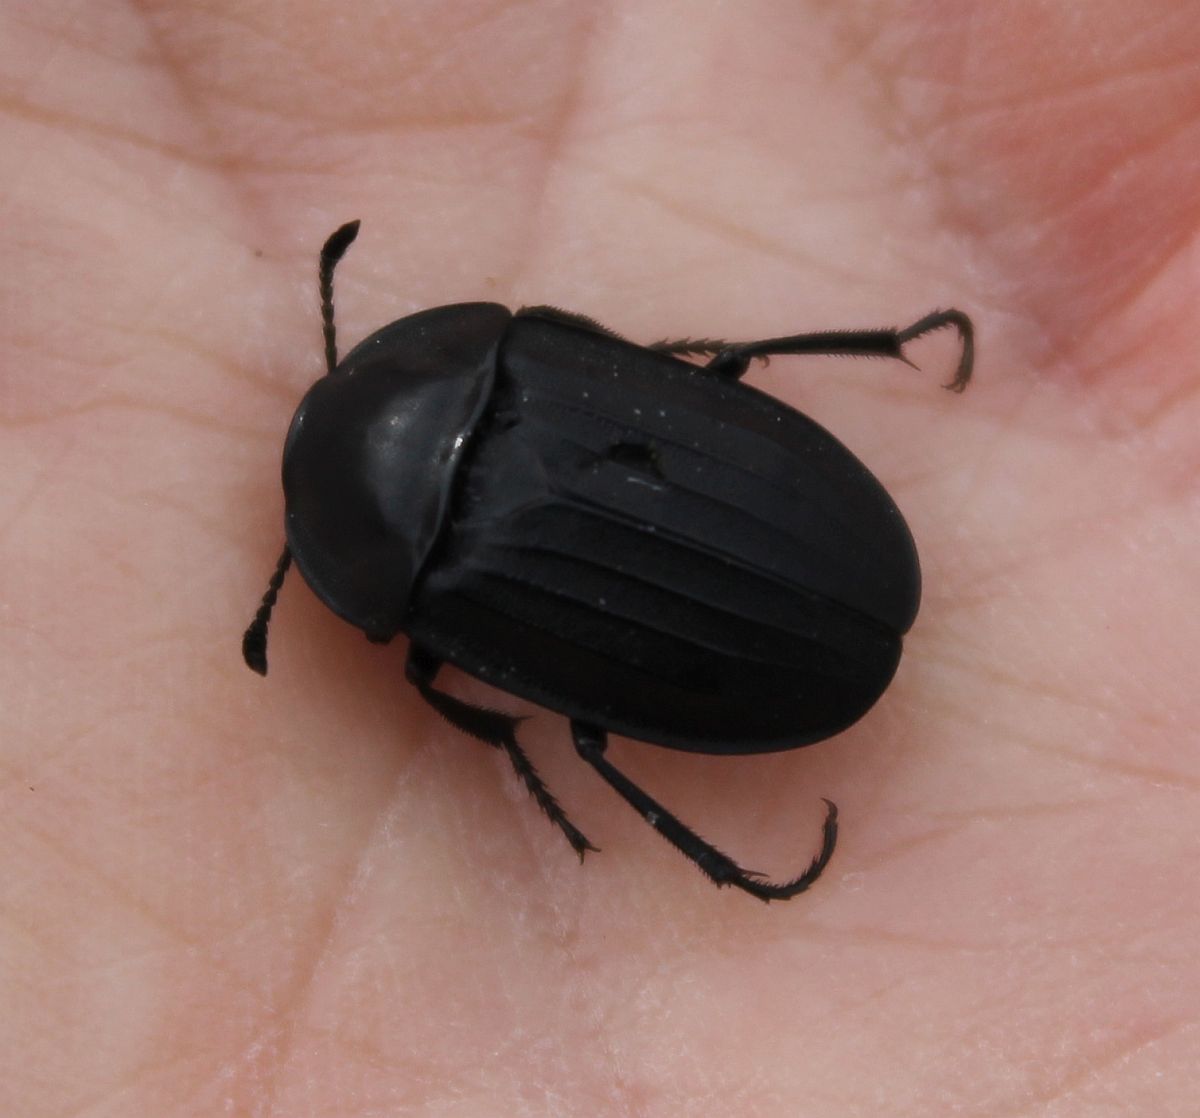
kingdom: Animalia
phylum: Arthropoda
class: Insecta
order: Coleoptera
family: Staphylinidae
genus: Silpha
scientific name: Silpha tristis
